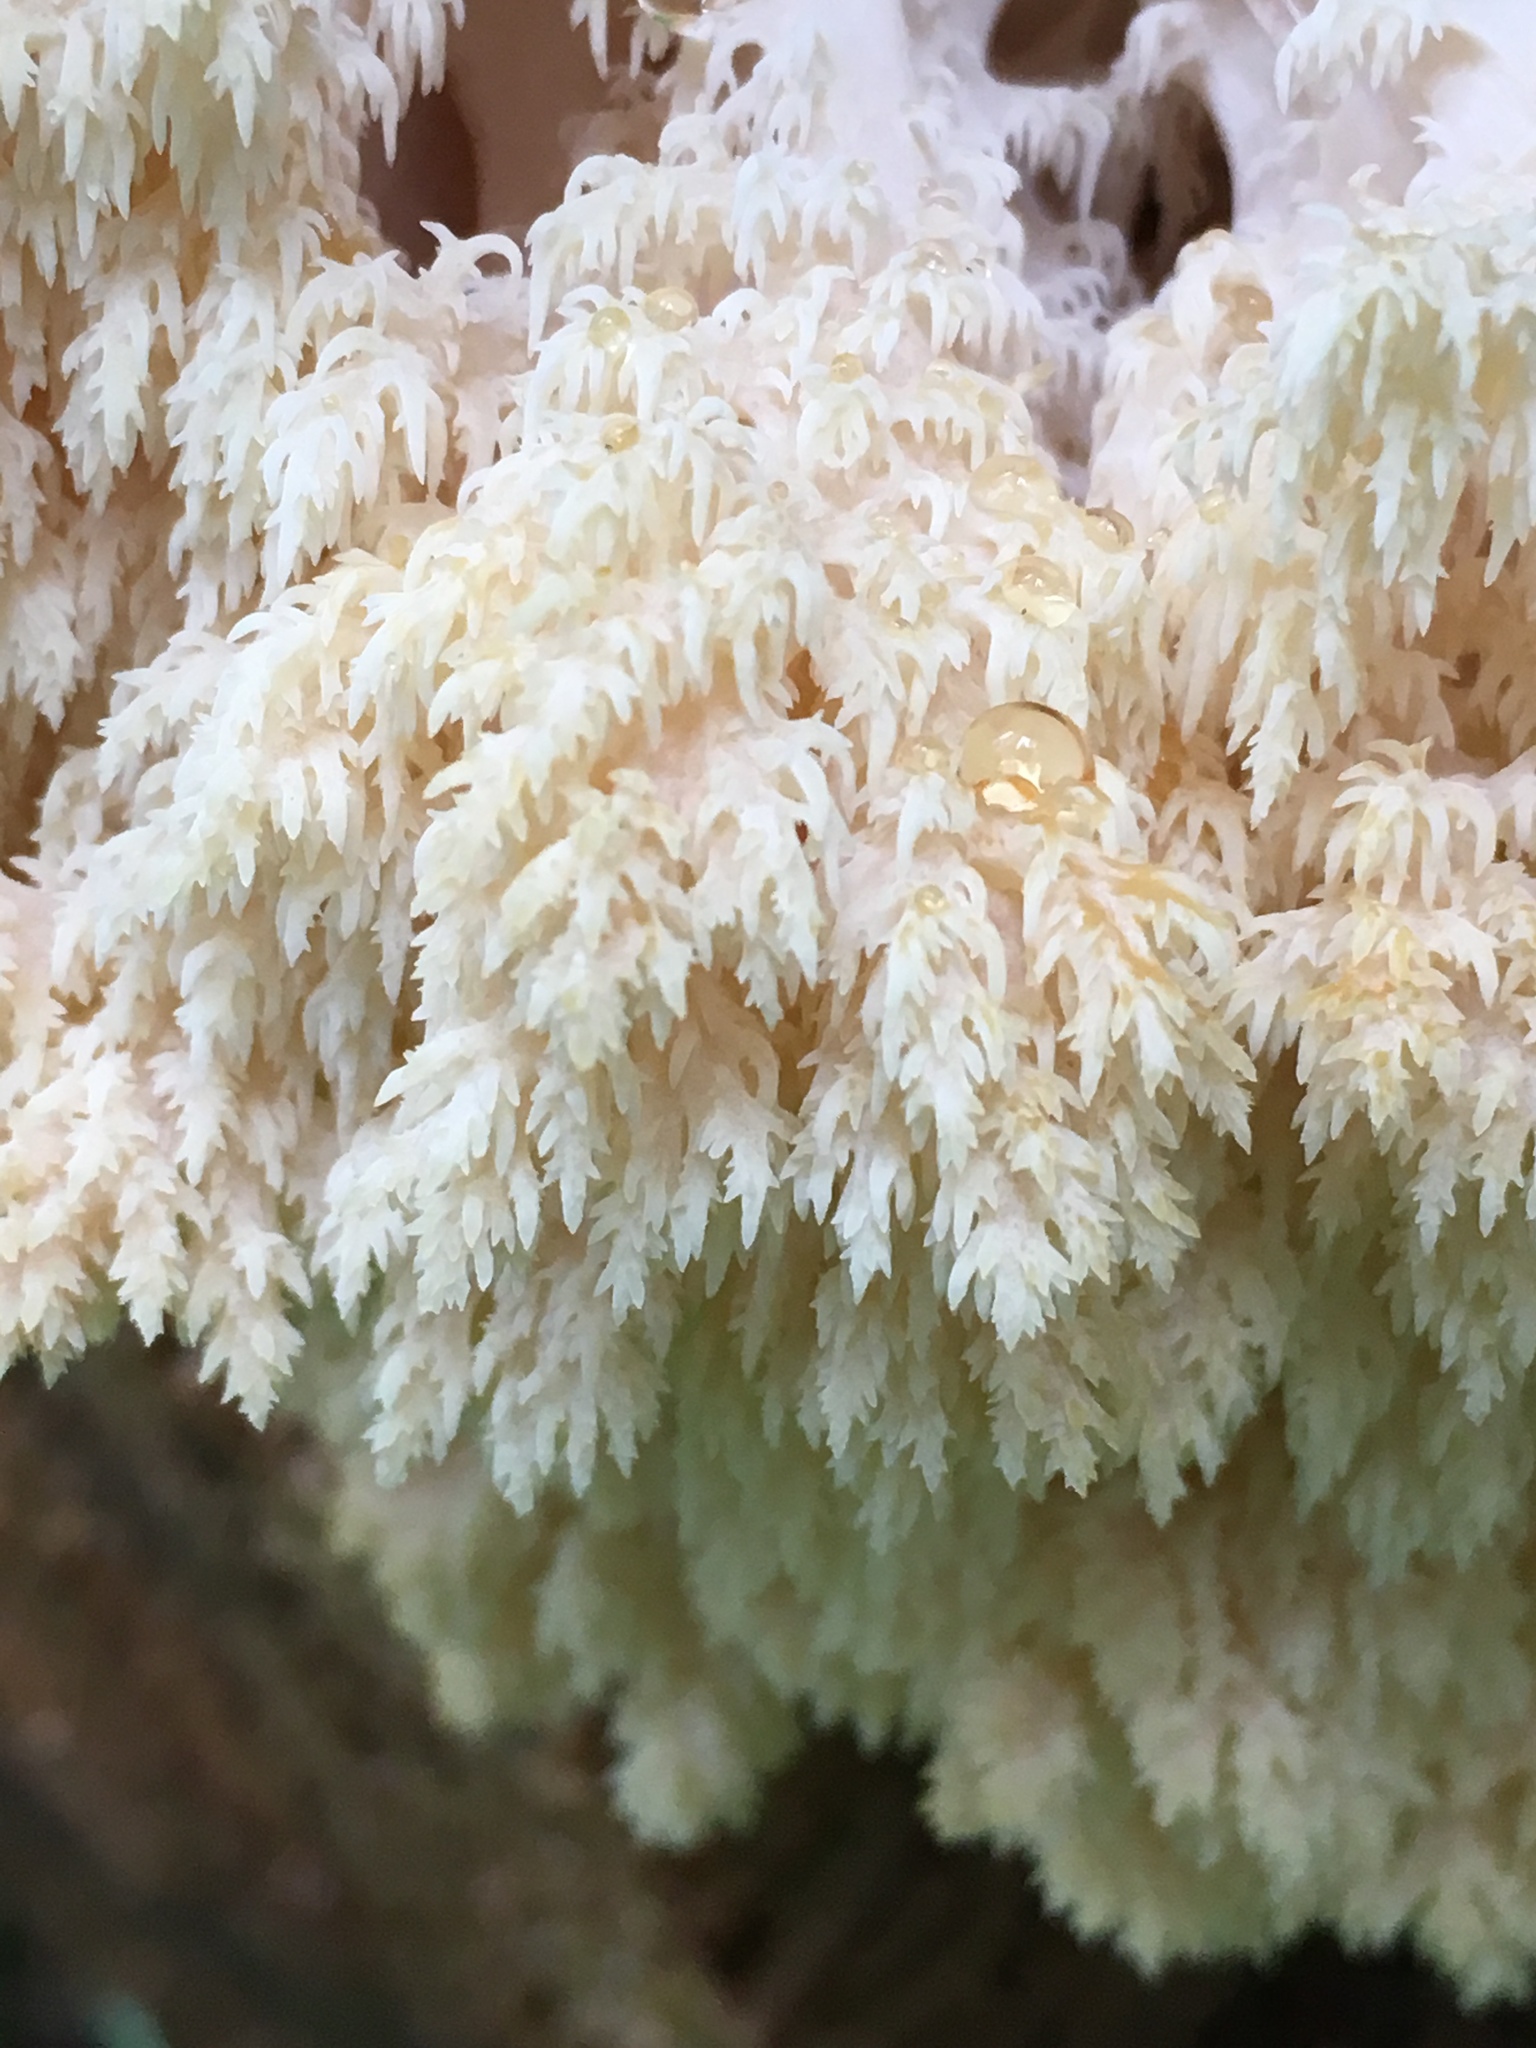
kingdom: Fungi
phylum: Basidiomycota
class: Agaricomycetes
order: Russulales
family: Hericiaceae
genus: Hericium
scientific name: Hericium abietis
